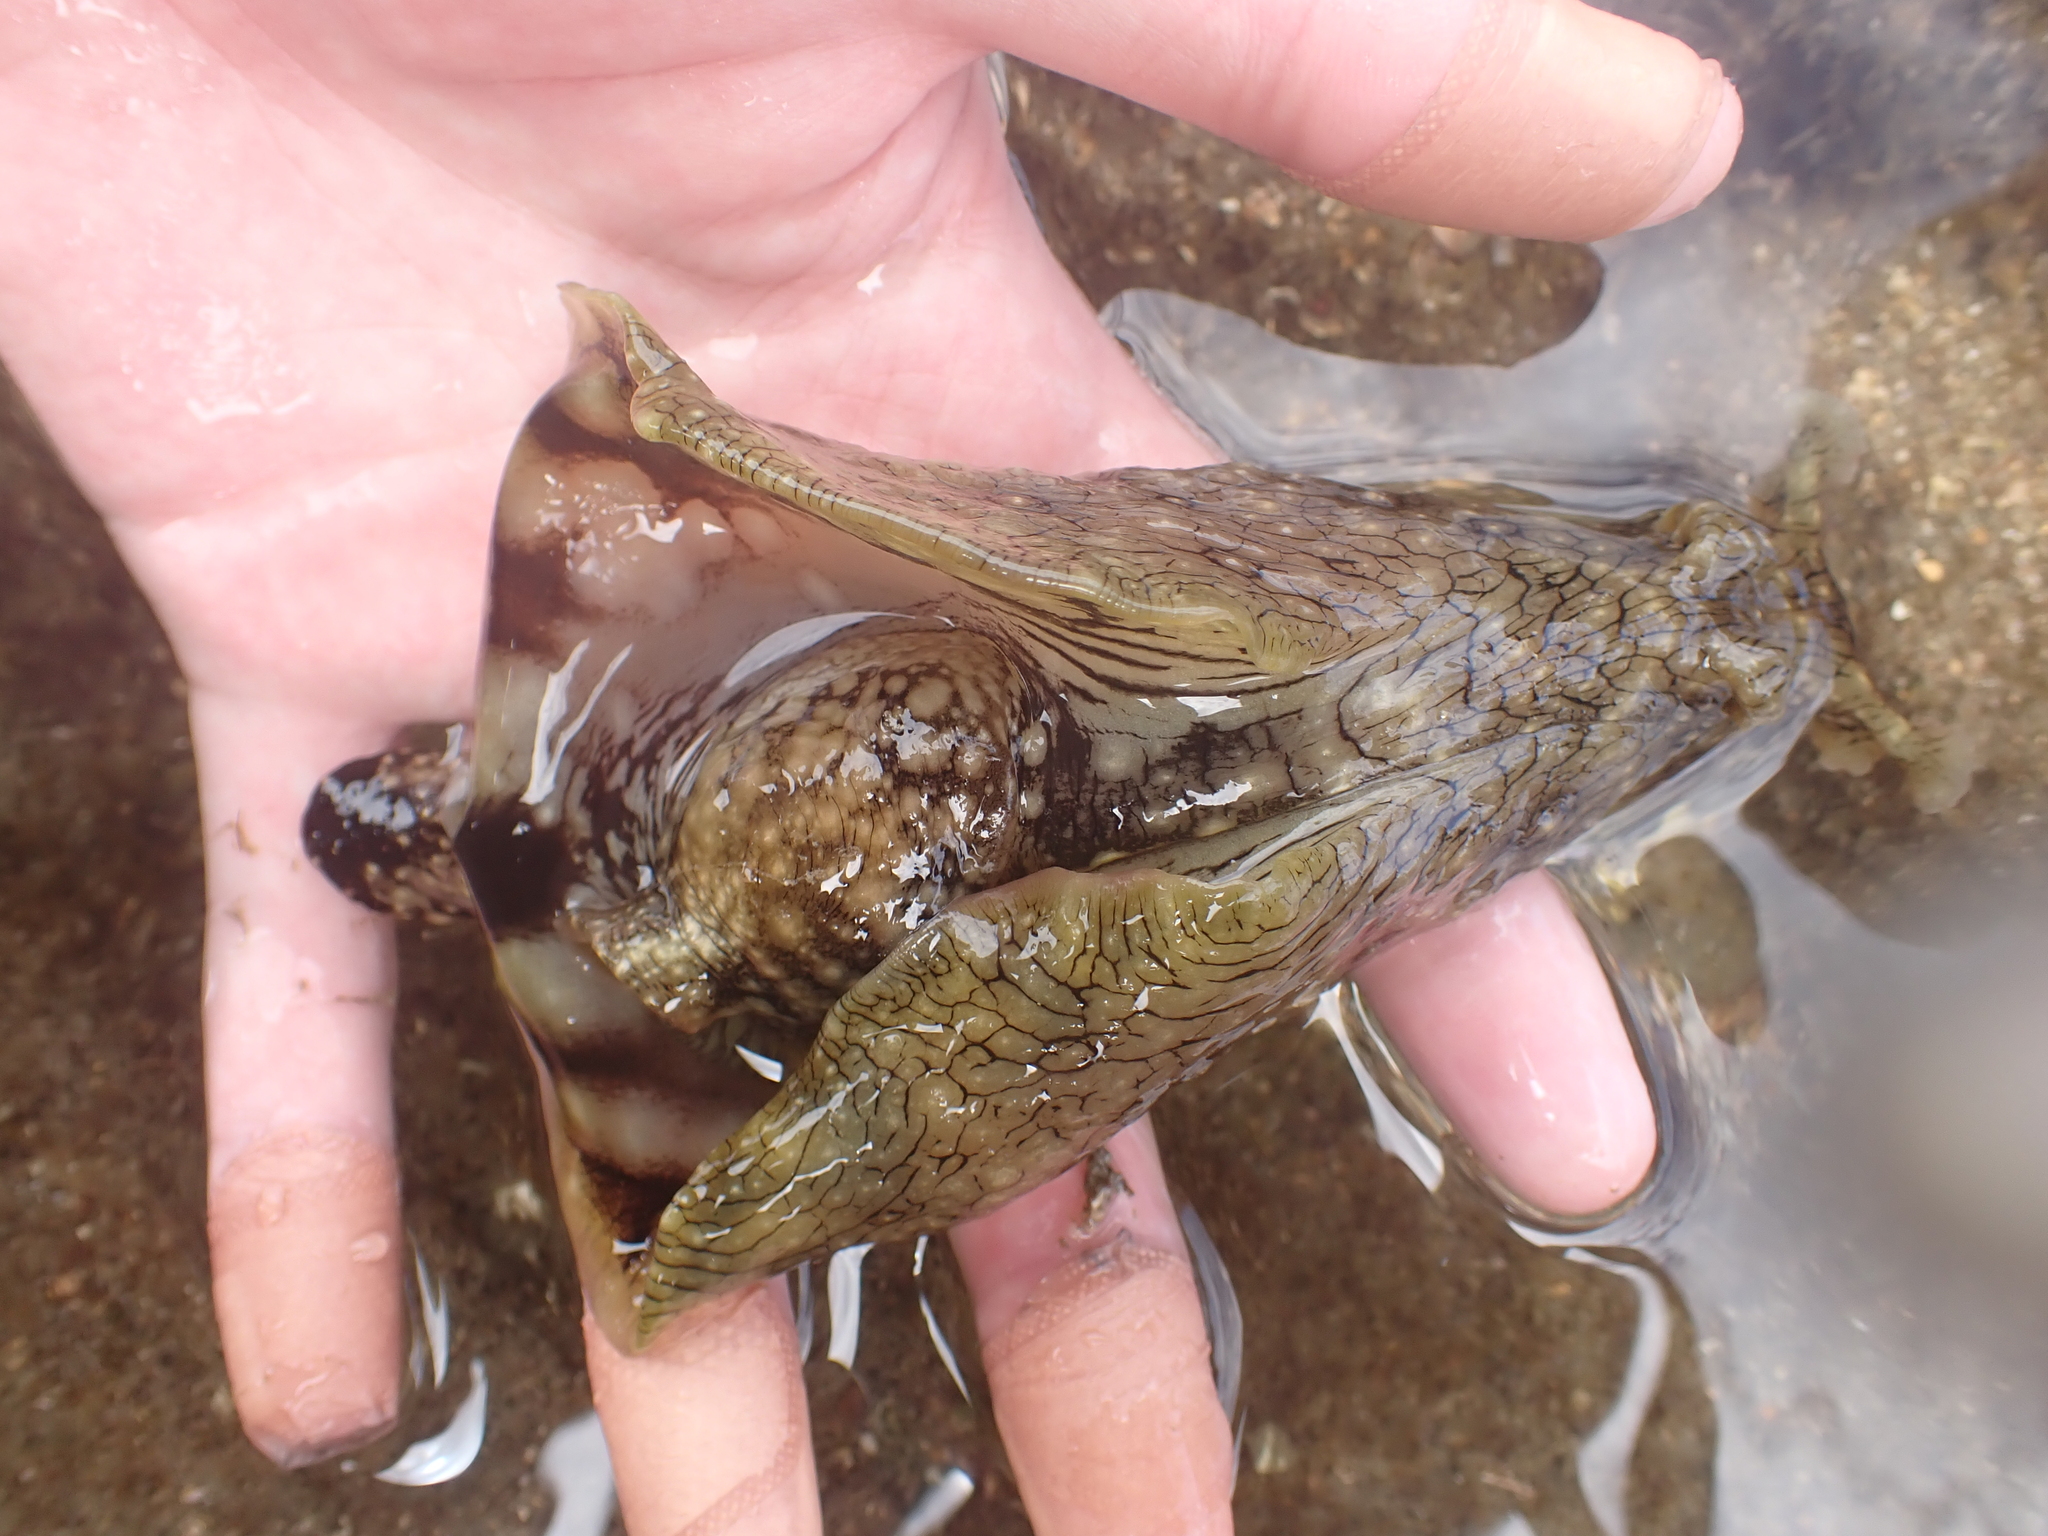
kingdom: Animalia
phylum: Mollusca
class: Gastropoda
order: Aplysiida
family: Aplysiidae
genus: Aplysia
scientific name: Aplysia argus
